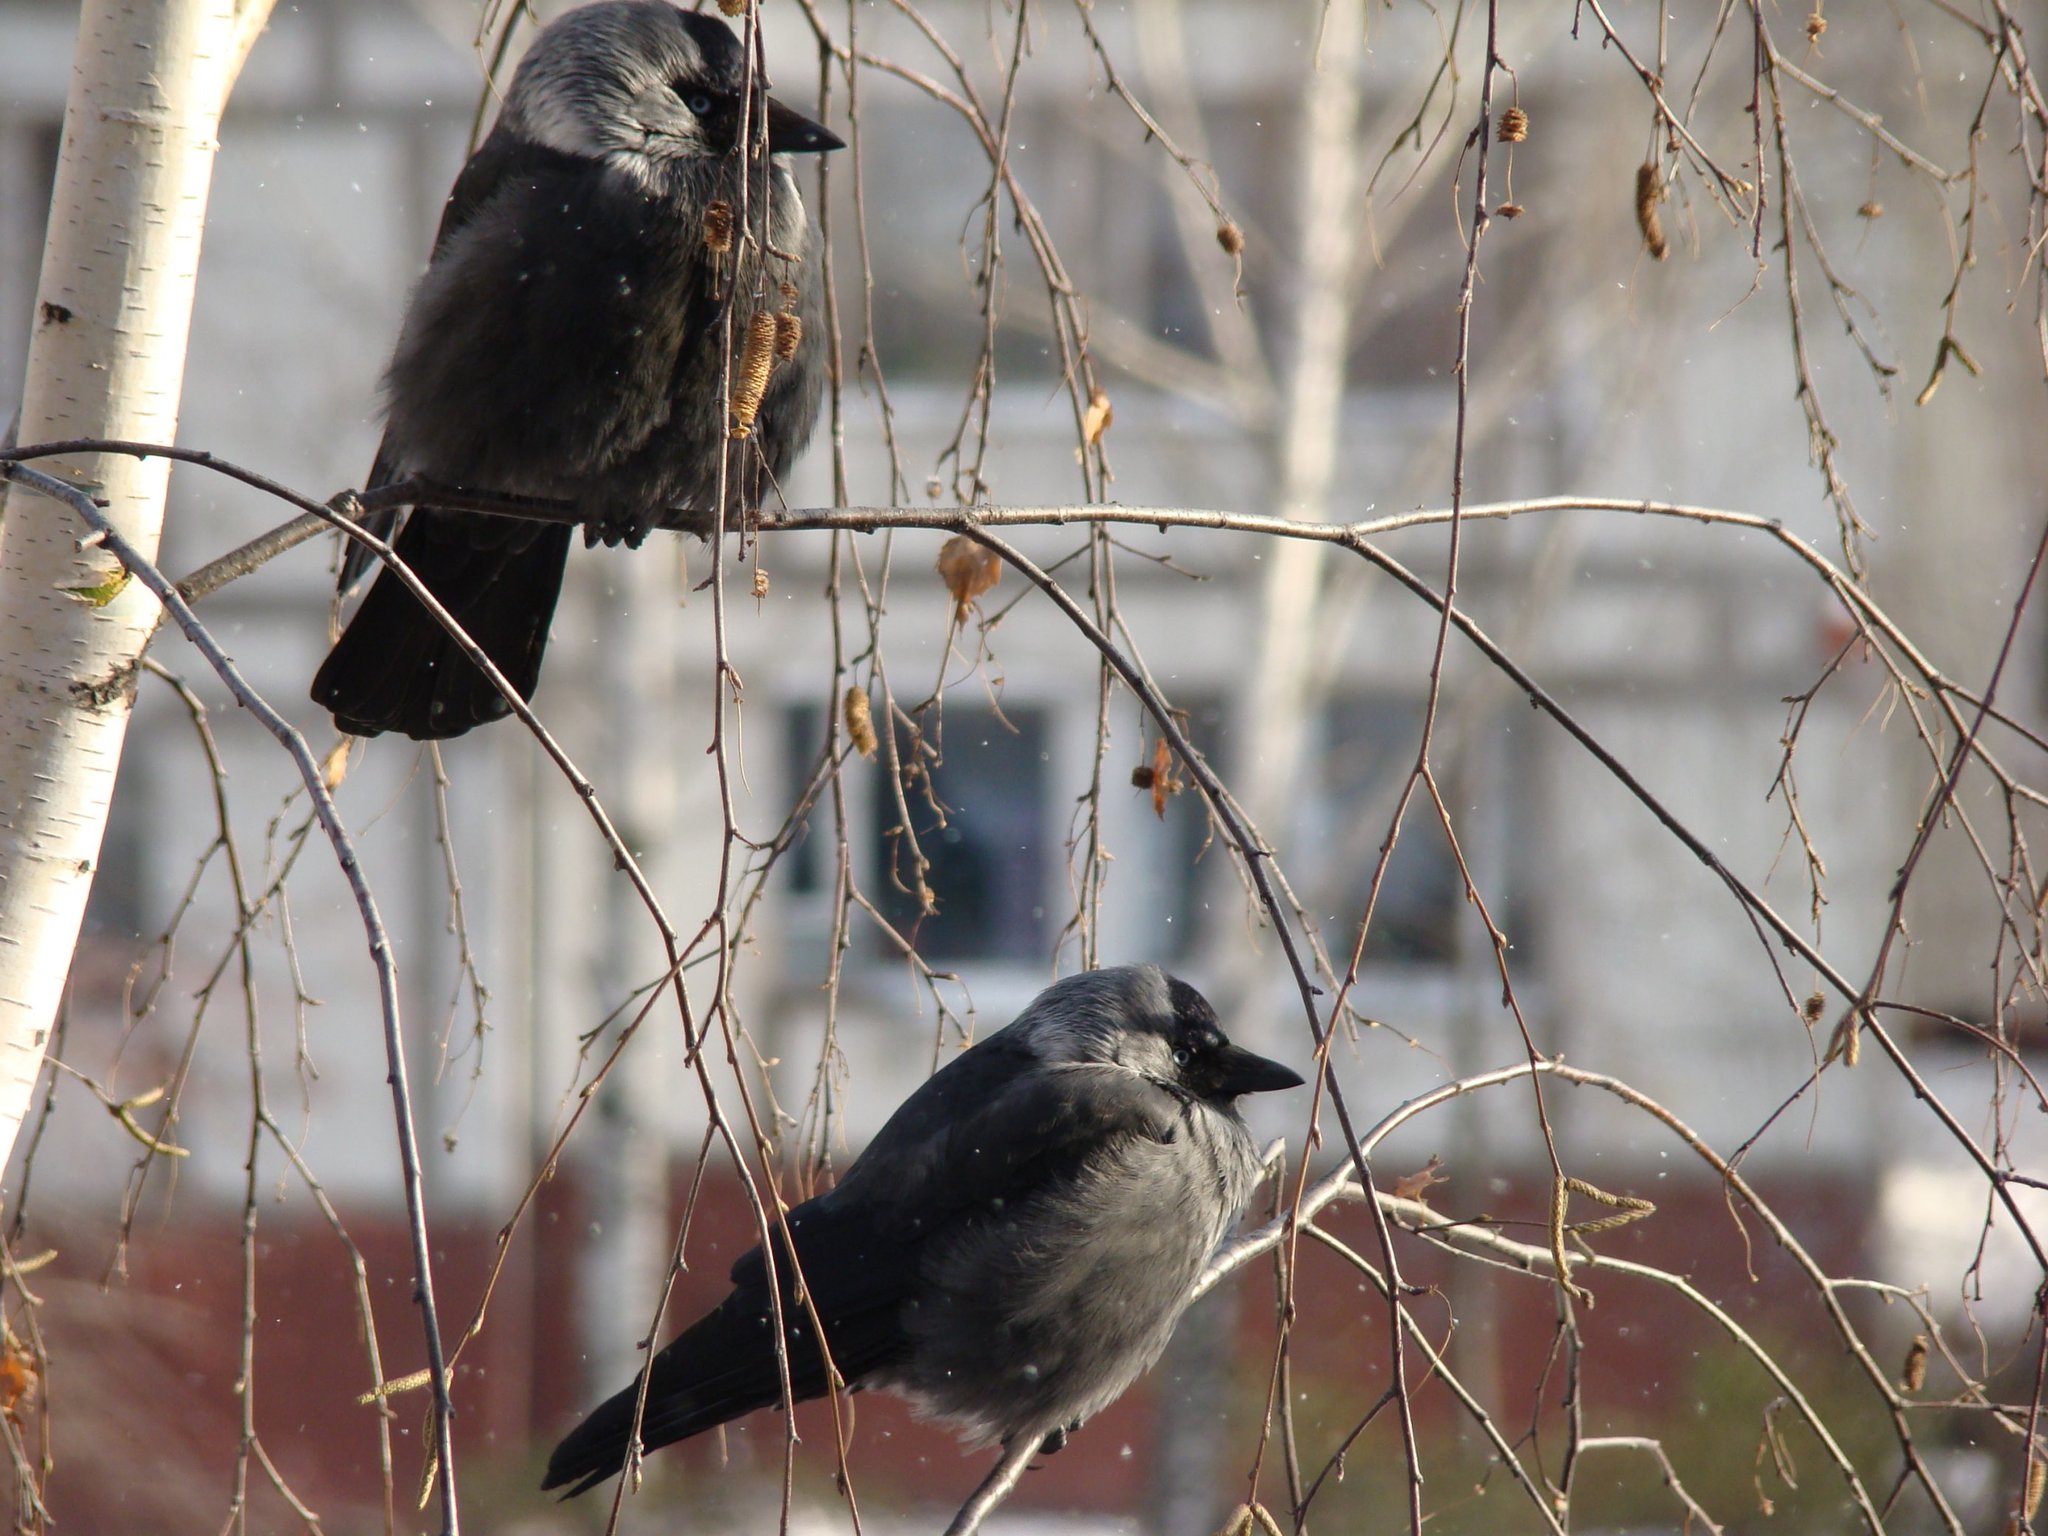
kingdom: Animalia
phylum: Chordata
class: Aves
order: Passeriformes
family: Corvidae
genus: Coloeus
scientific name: Coloeus monedula
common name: Western jackdaw
